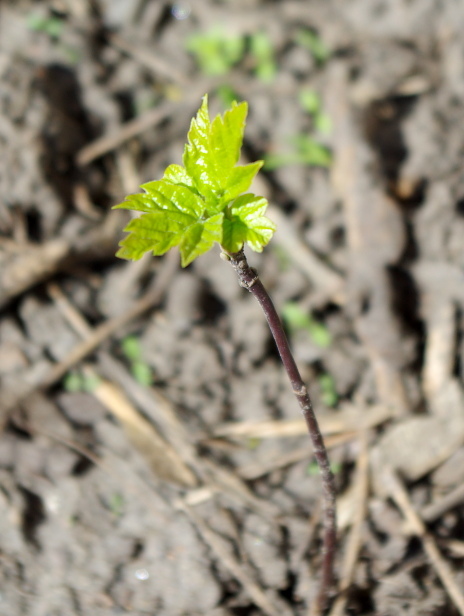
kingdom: Plantae
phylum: Tracheophyta
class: Magnoliopsida
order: Sapindales
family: Sapindaceae
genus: Acer
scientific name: Acer negundo
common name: Ashleaf maple
